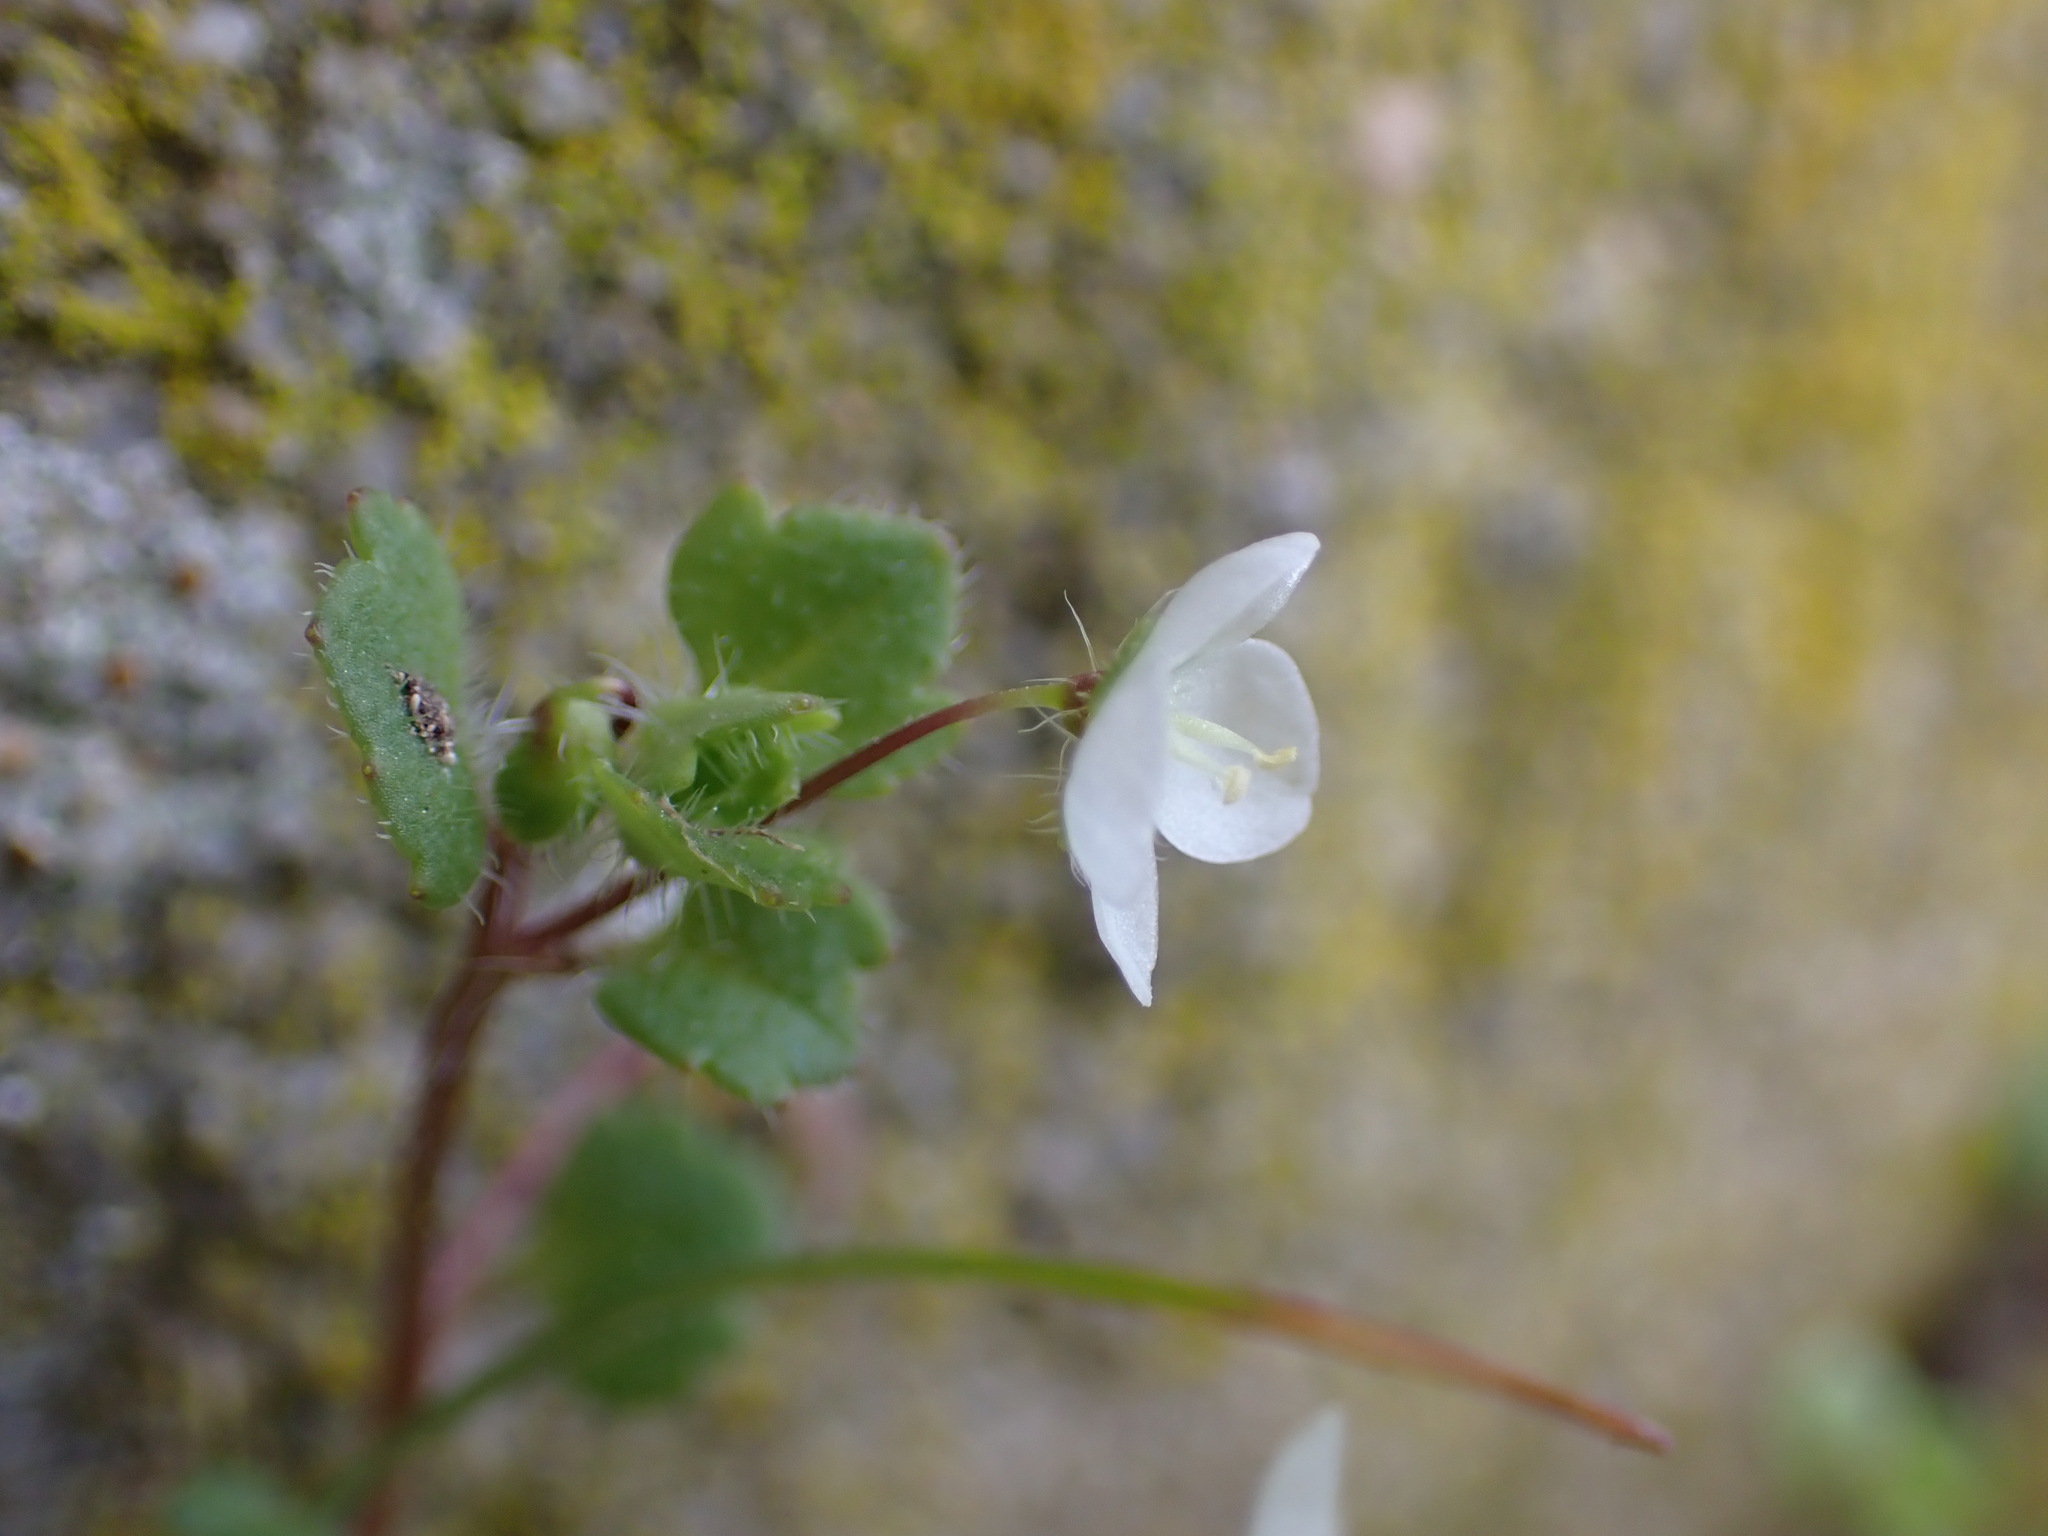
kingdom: Plantae
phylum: Tracheophyta
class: Magnoliopsida
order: Lamiales
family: Plantaginaceae
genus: Veronica
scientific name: Veronica cymbalaria
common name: Pale speedwell
